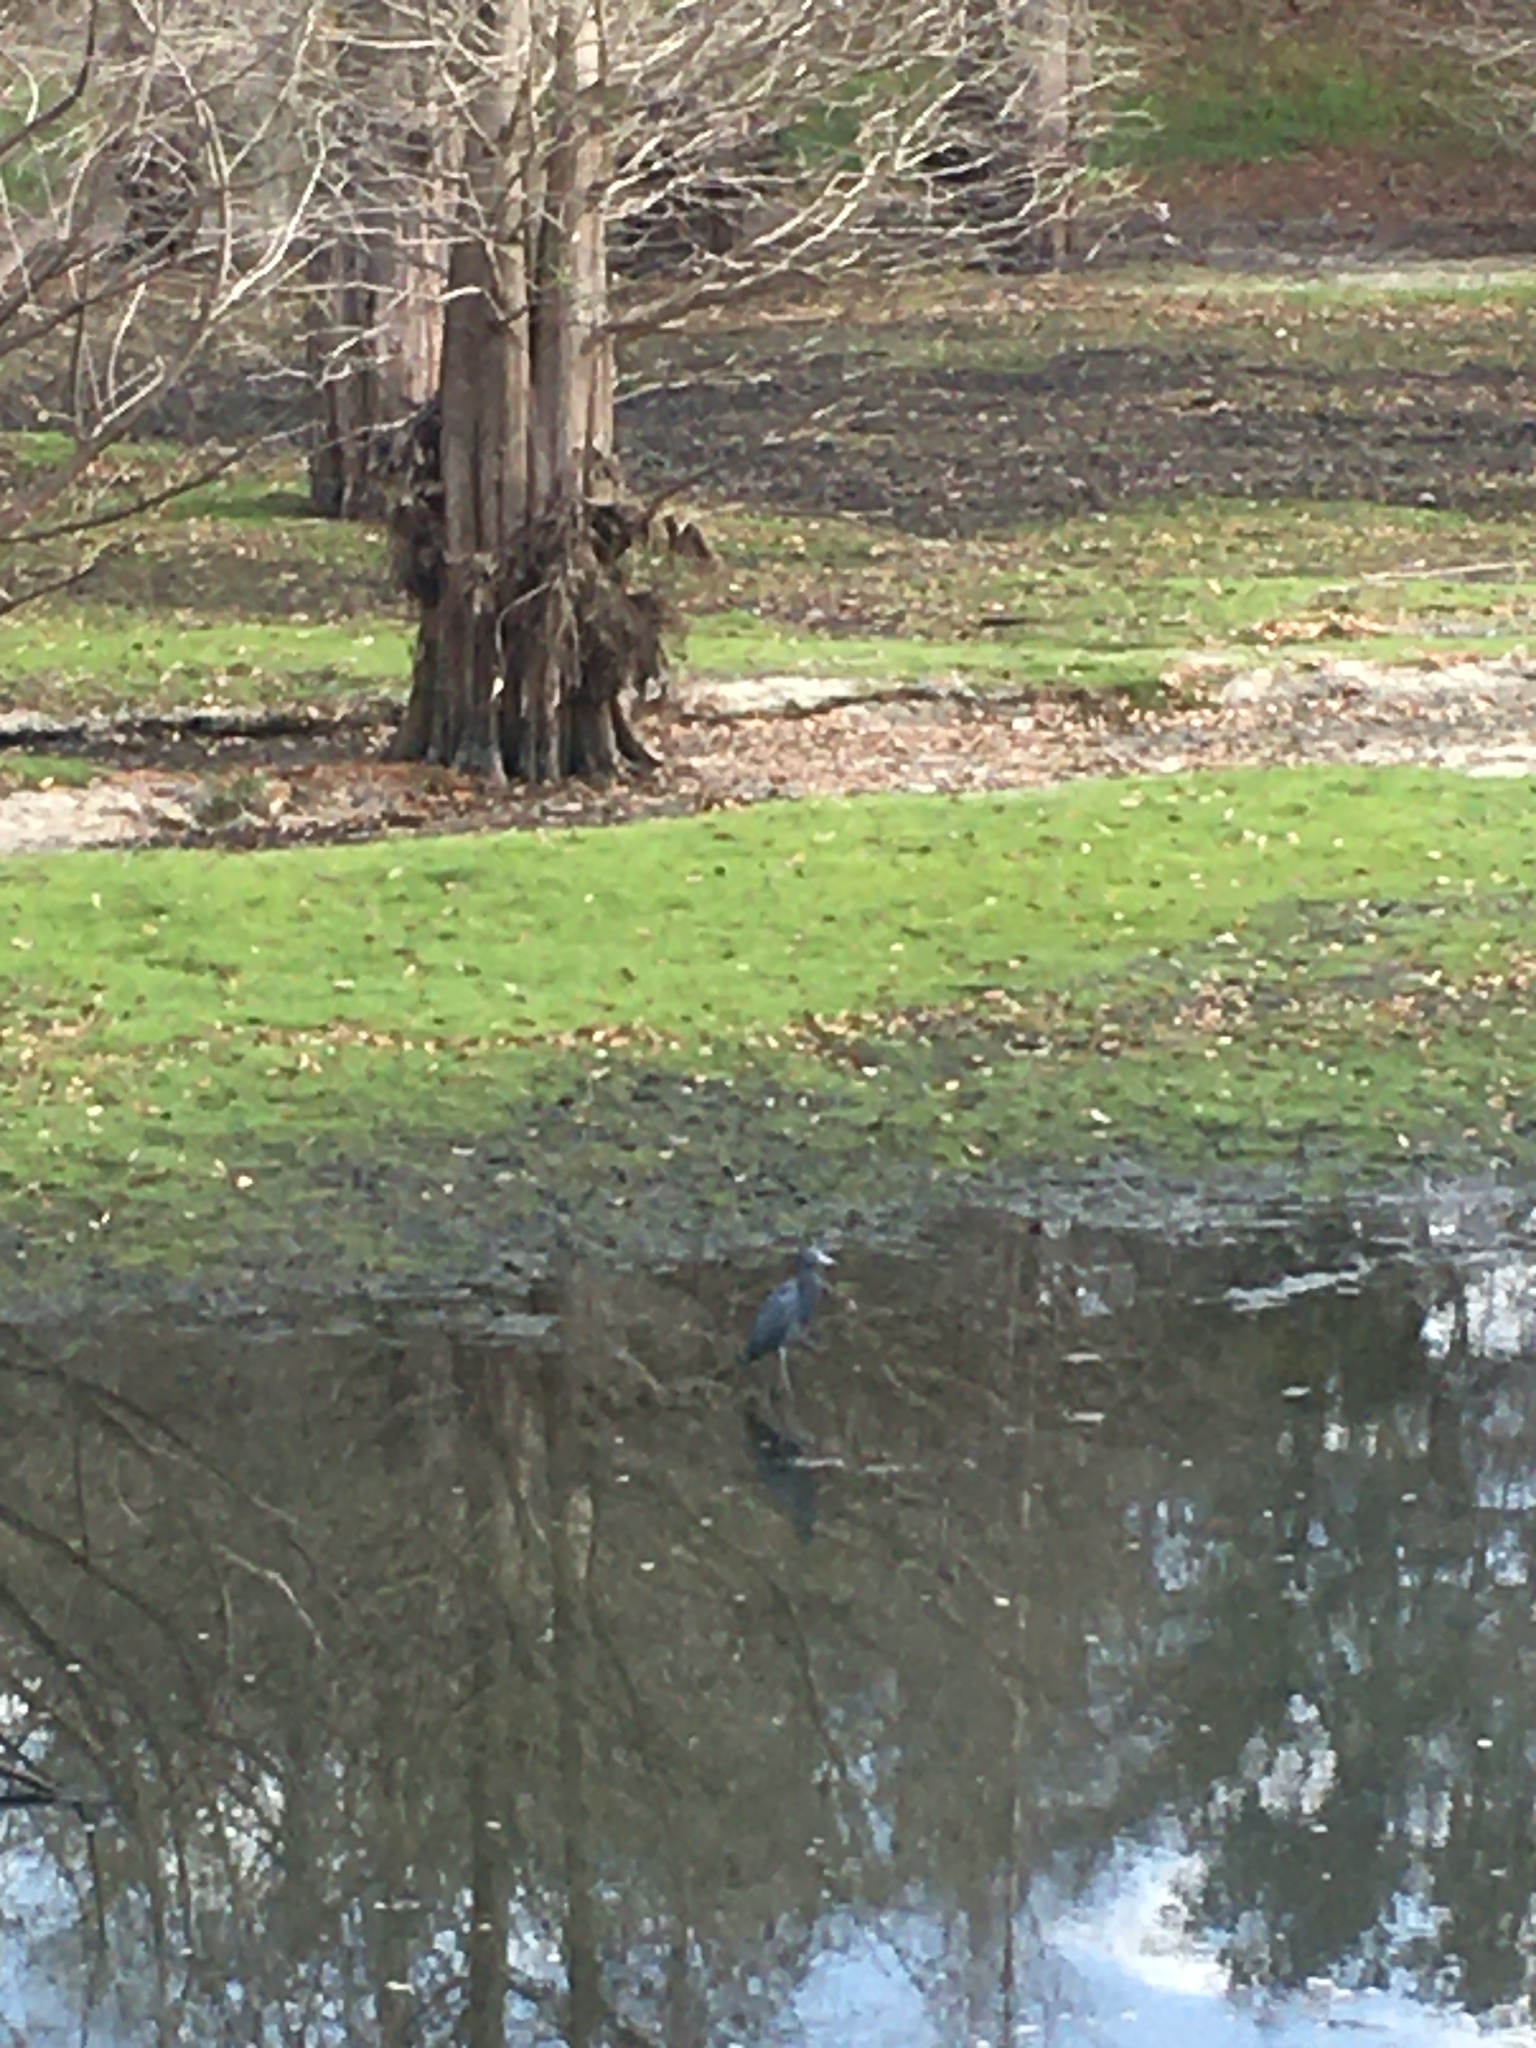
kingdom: Animalia
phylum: Chordata
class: Aves
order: Pelecaniformes
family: Ardeidae
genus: Egretta
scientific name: Egretta caerulea
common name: Little blue heron
